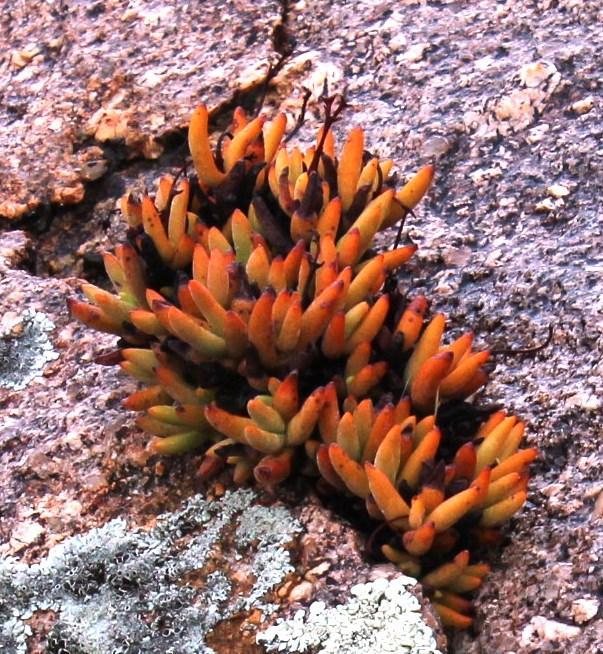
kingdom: Plantae
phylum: Tracheophyta
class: Magnoliopsida
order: Saxifragales
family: Crassulaceae
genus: Crassula
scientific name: Crassula garibina
